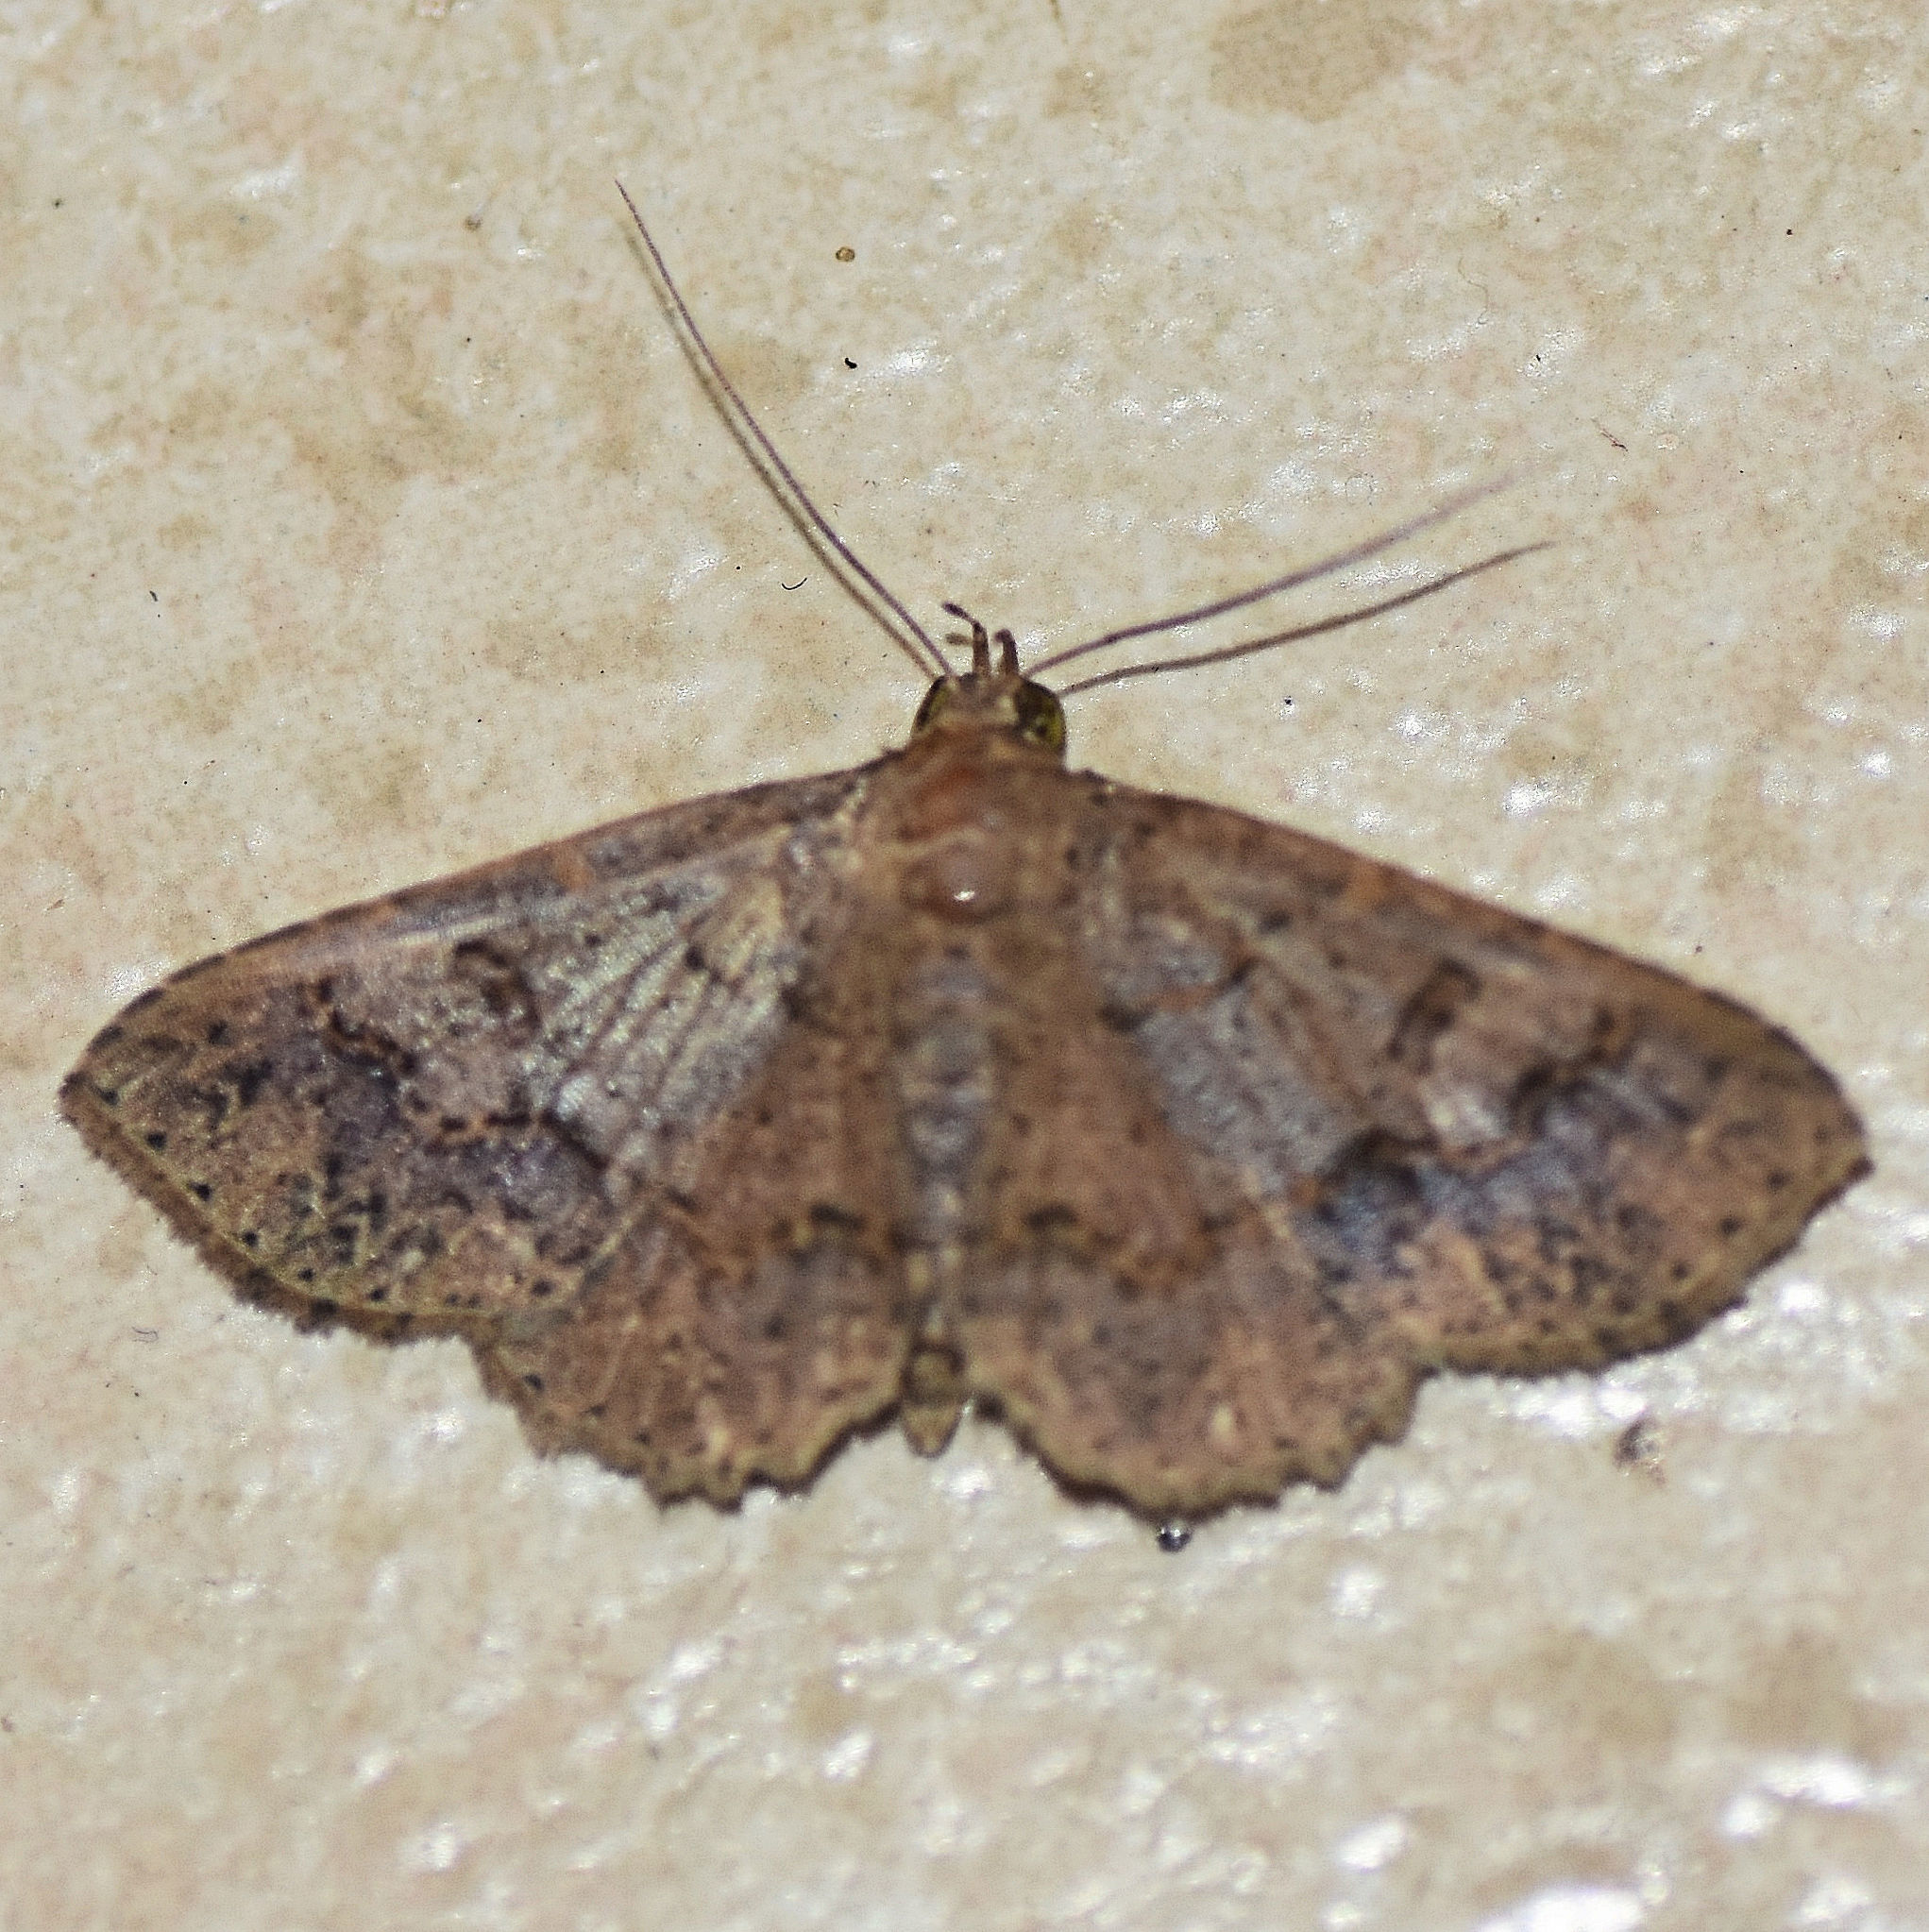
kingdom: Animalia
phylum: Arthropoda
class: Insecta
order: Lepidoptera
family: Erebidae
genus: Ostha
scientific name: Ostha concinna
